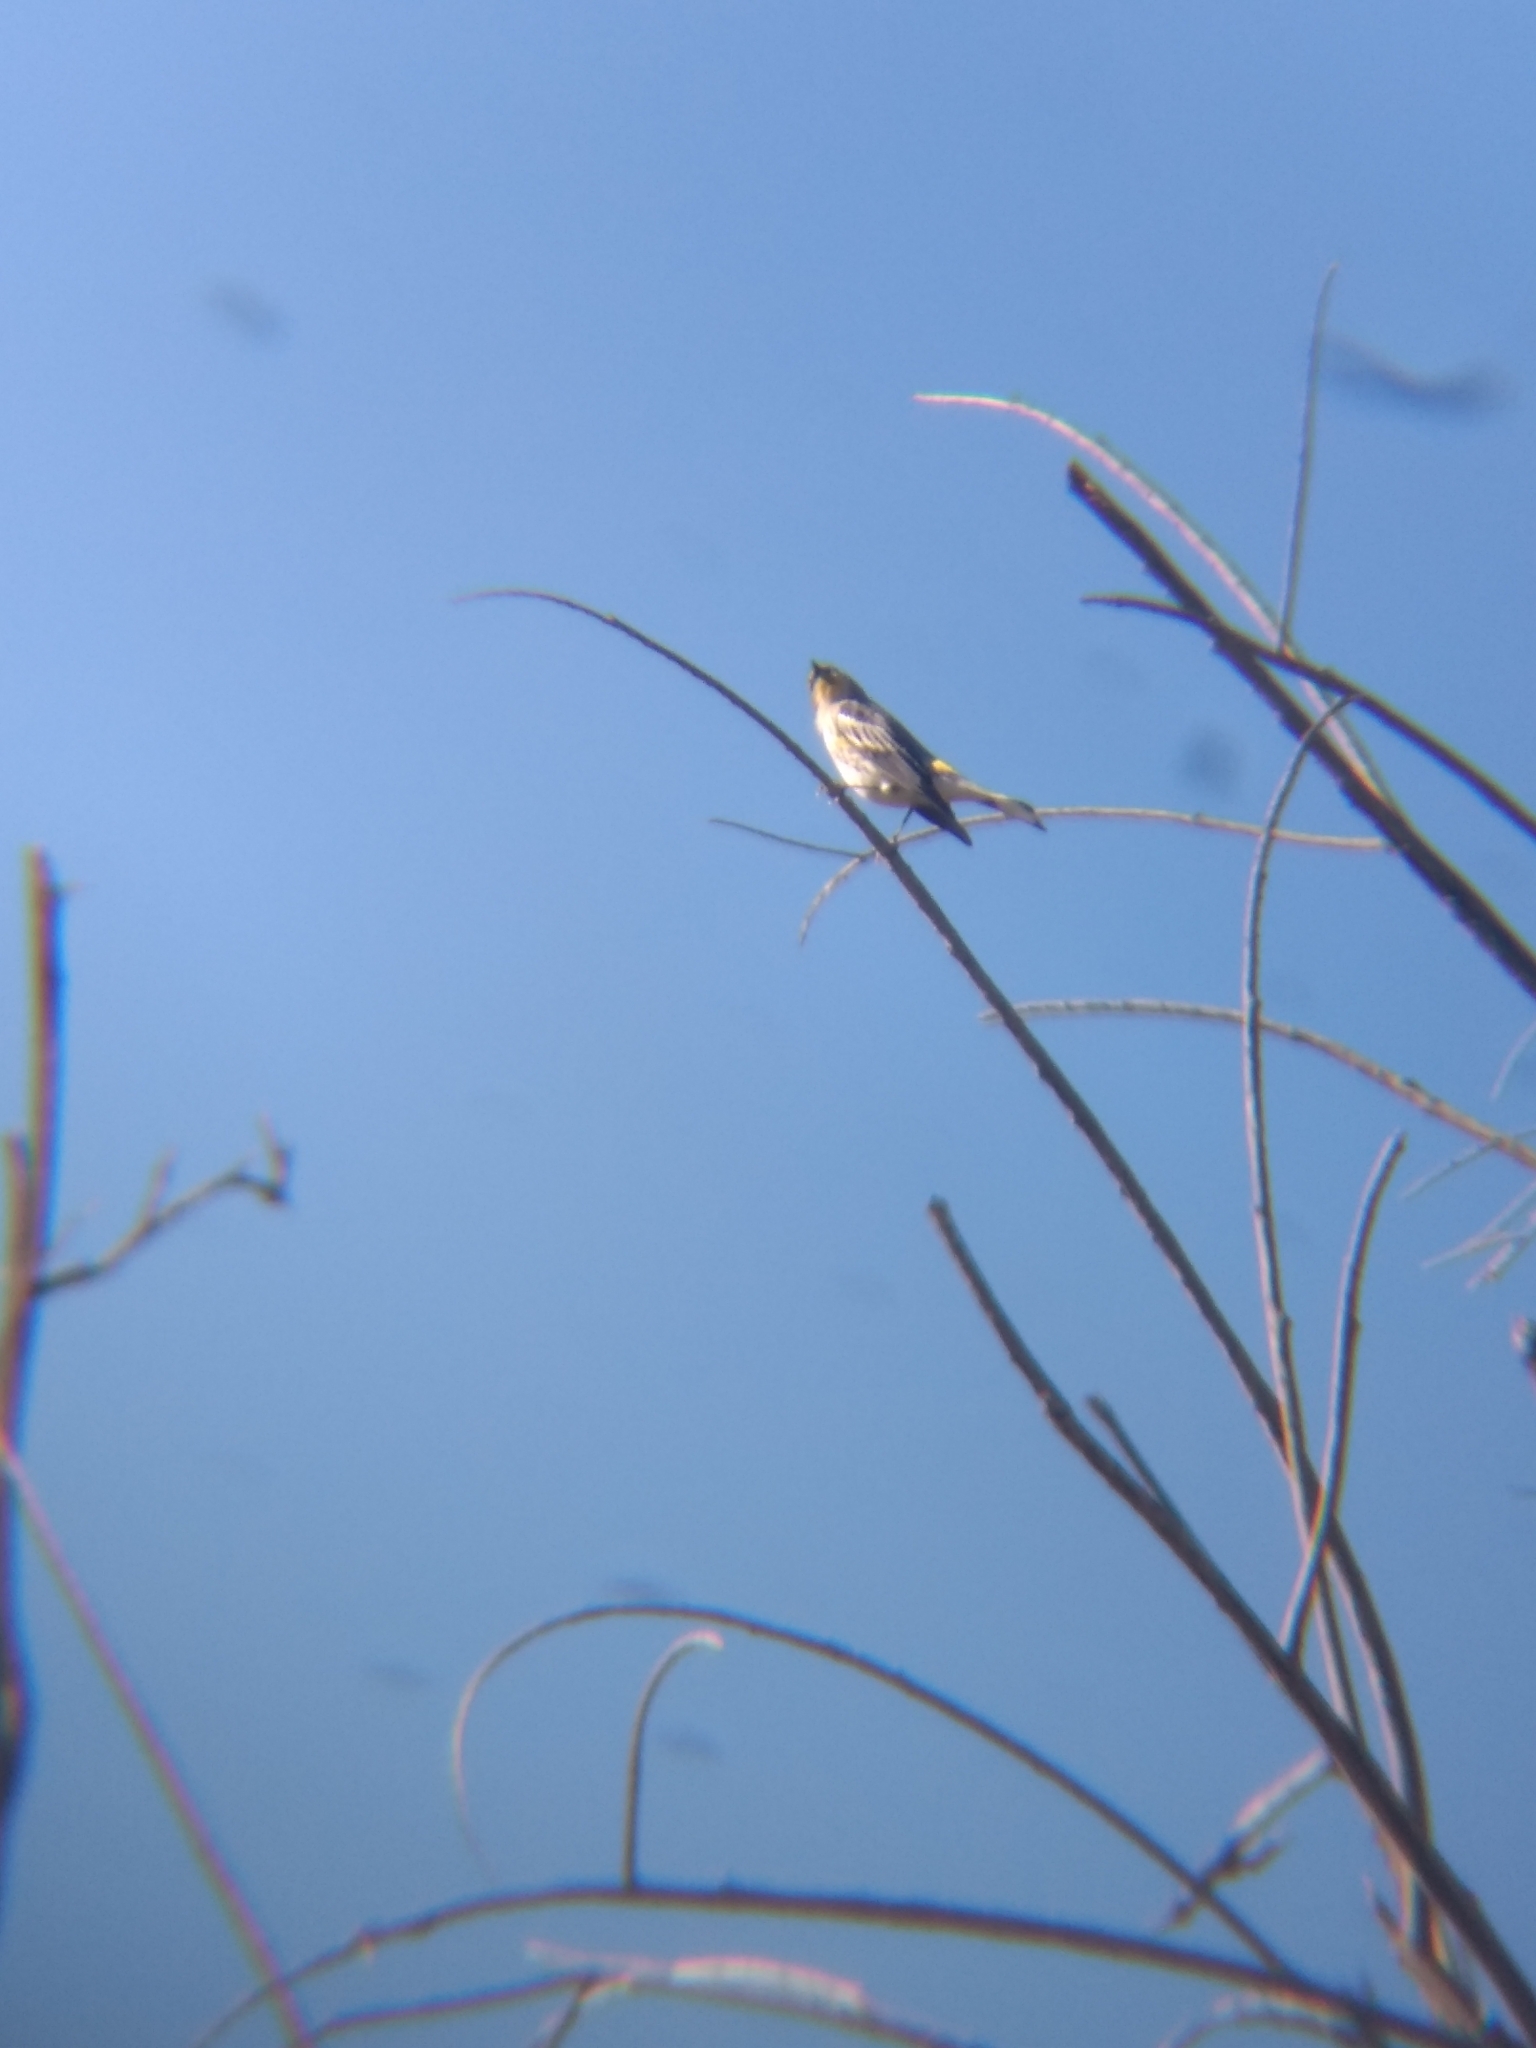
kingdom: Animalia
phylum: Chordata
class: Aves
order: Passeriformes
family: Parulidae
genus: Setophaga
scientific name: Setophaga coronata
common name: Myrtle warbler
